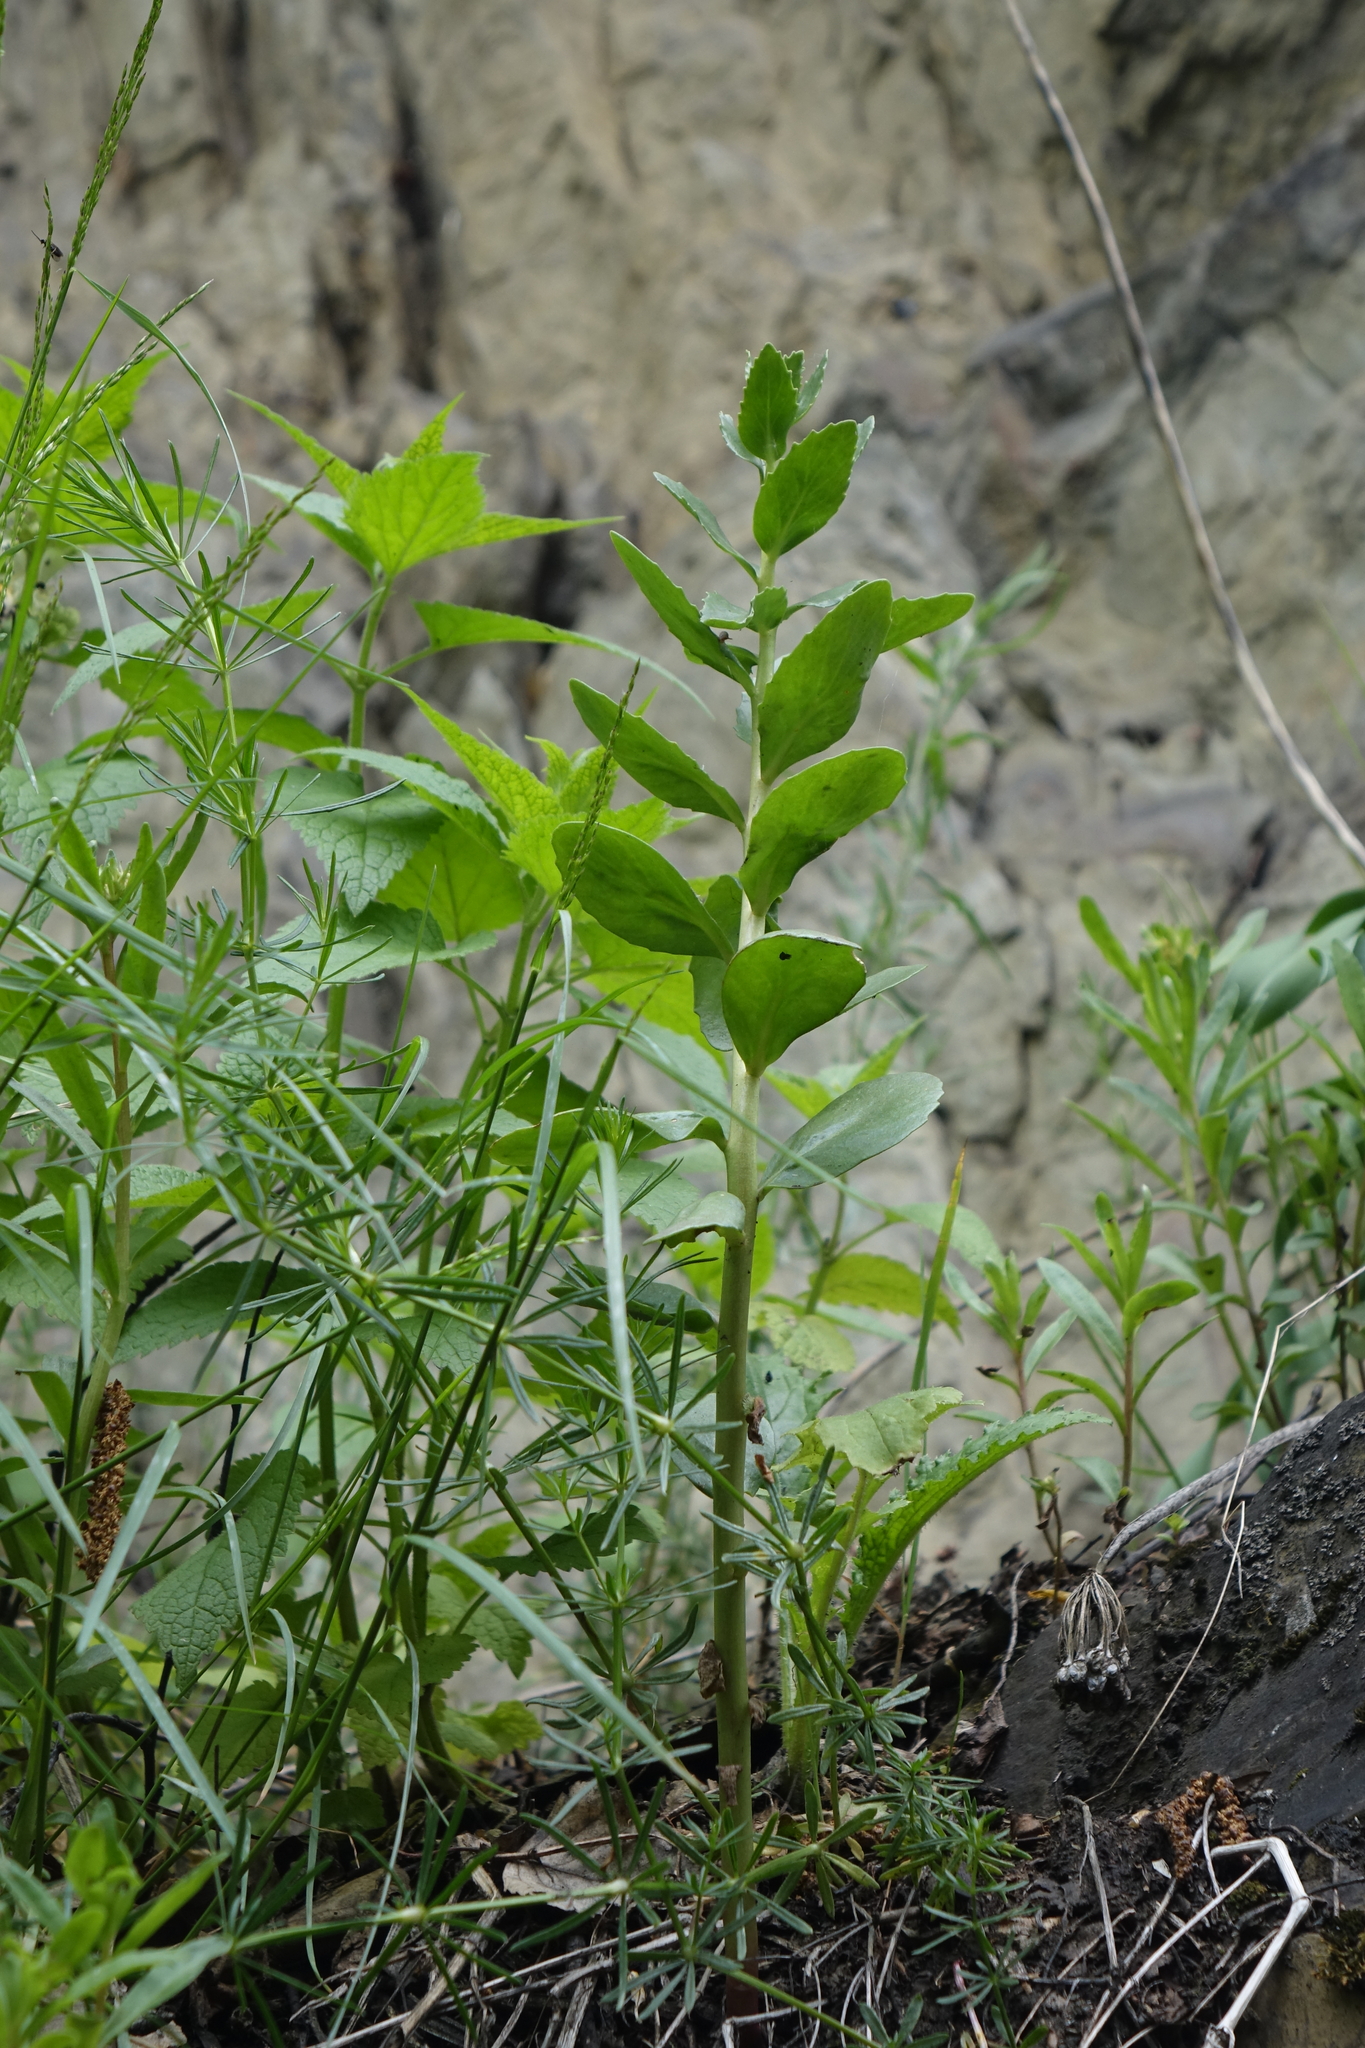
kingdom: Plantae
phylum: Tracheophyta
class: Magnoliopsida
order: Saxifragales
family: Crassulaceae
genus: Hylotelephium
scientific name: Hylotelephium telephium
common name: Live-forever
